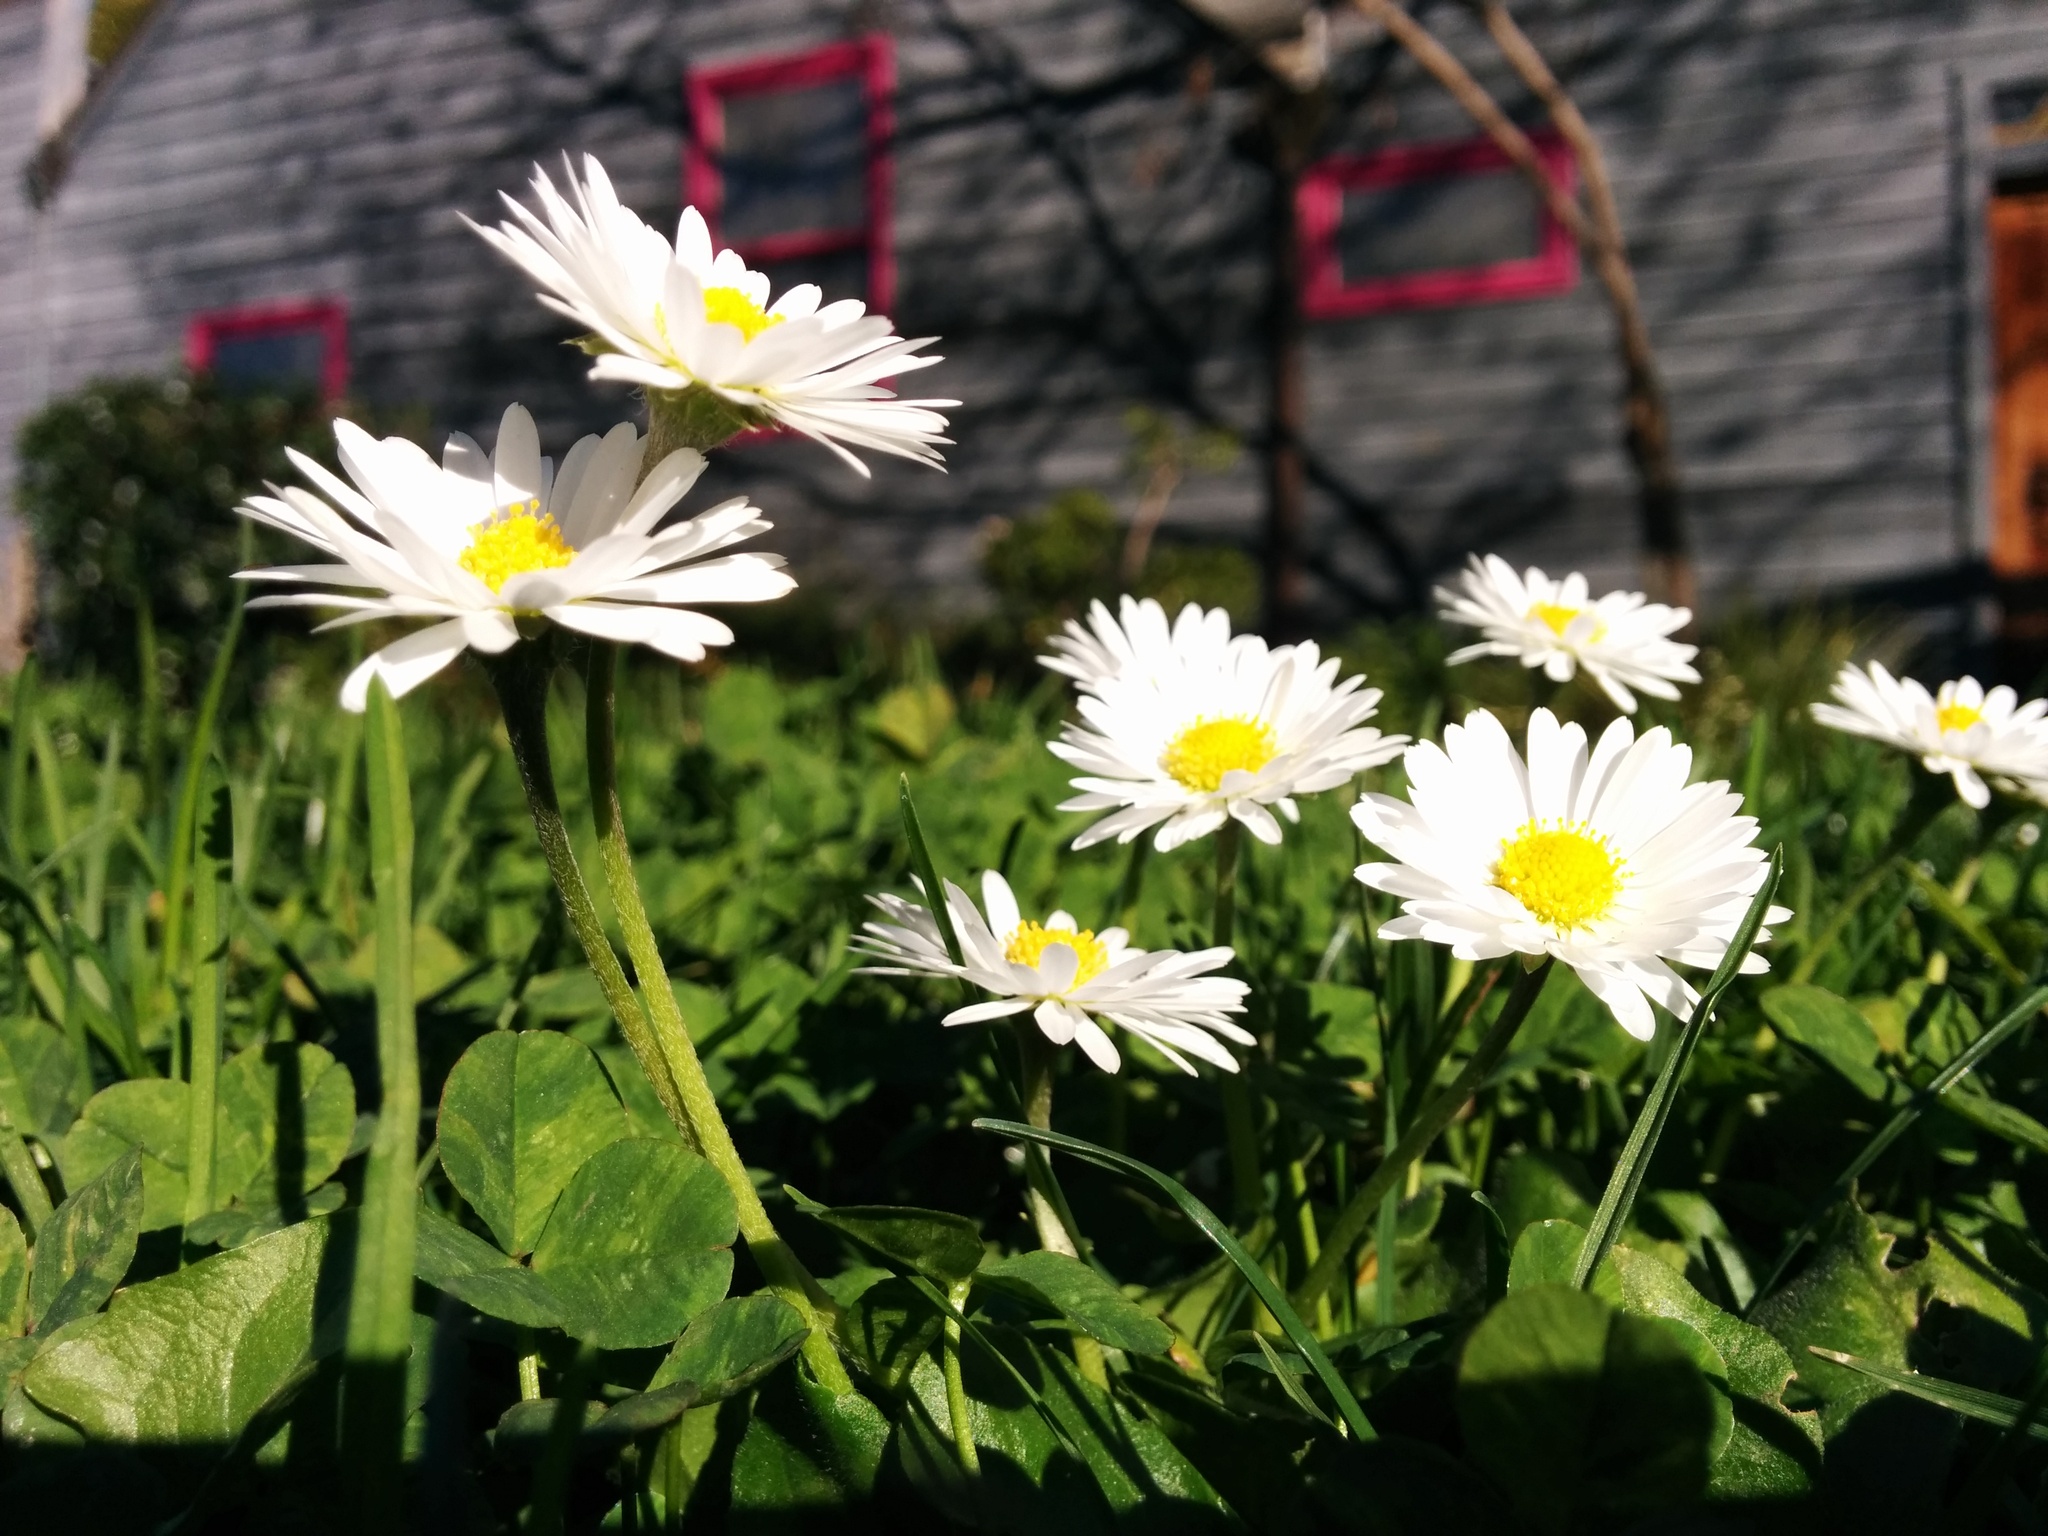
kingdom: Plantae
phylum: Tracheophyta
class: Magnoliopsida
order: Asterales
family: Asteraceae
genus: Bellis
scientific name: Bellis perennis
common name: Lawndaisy
